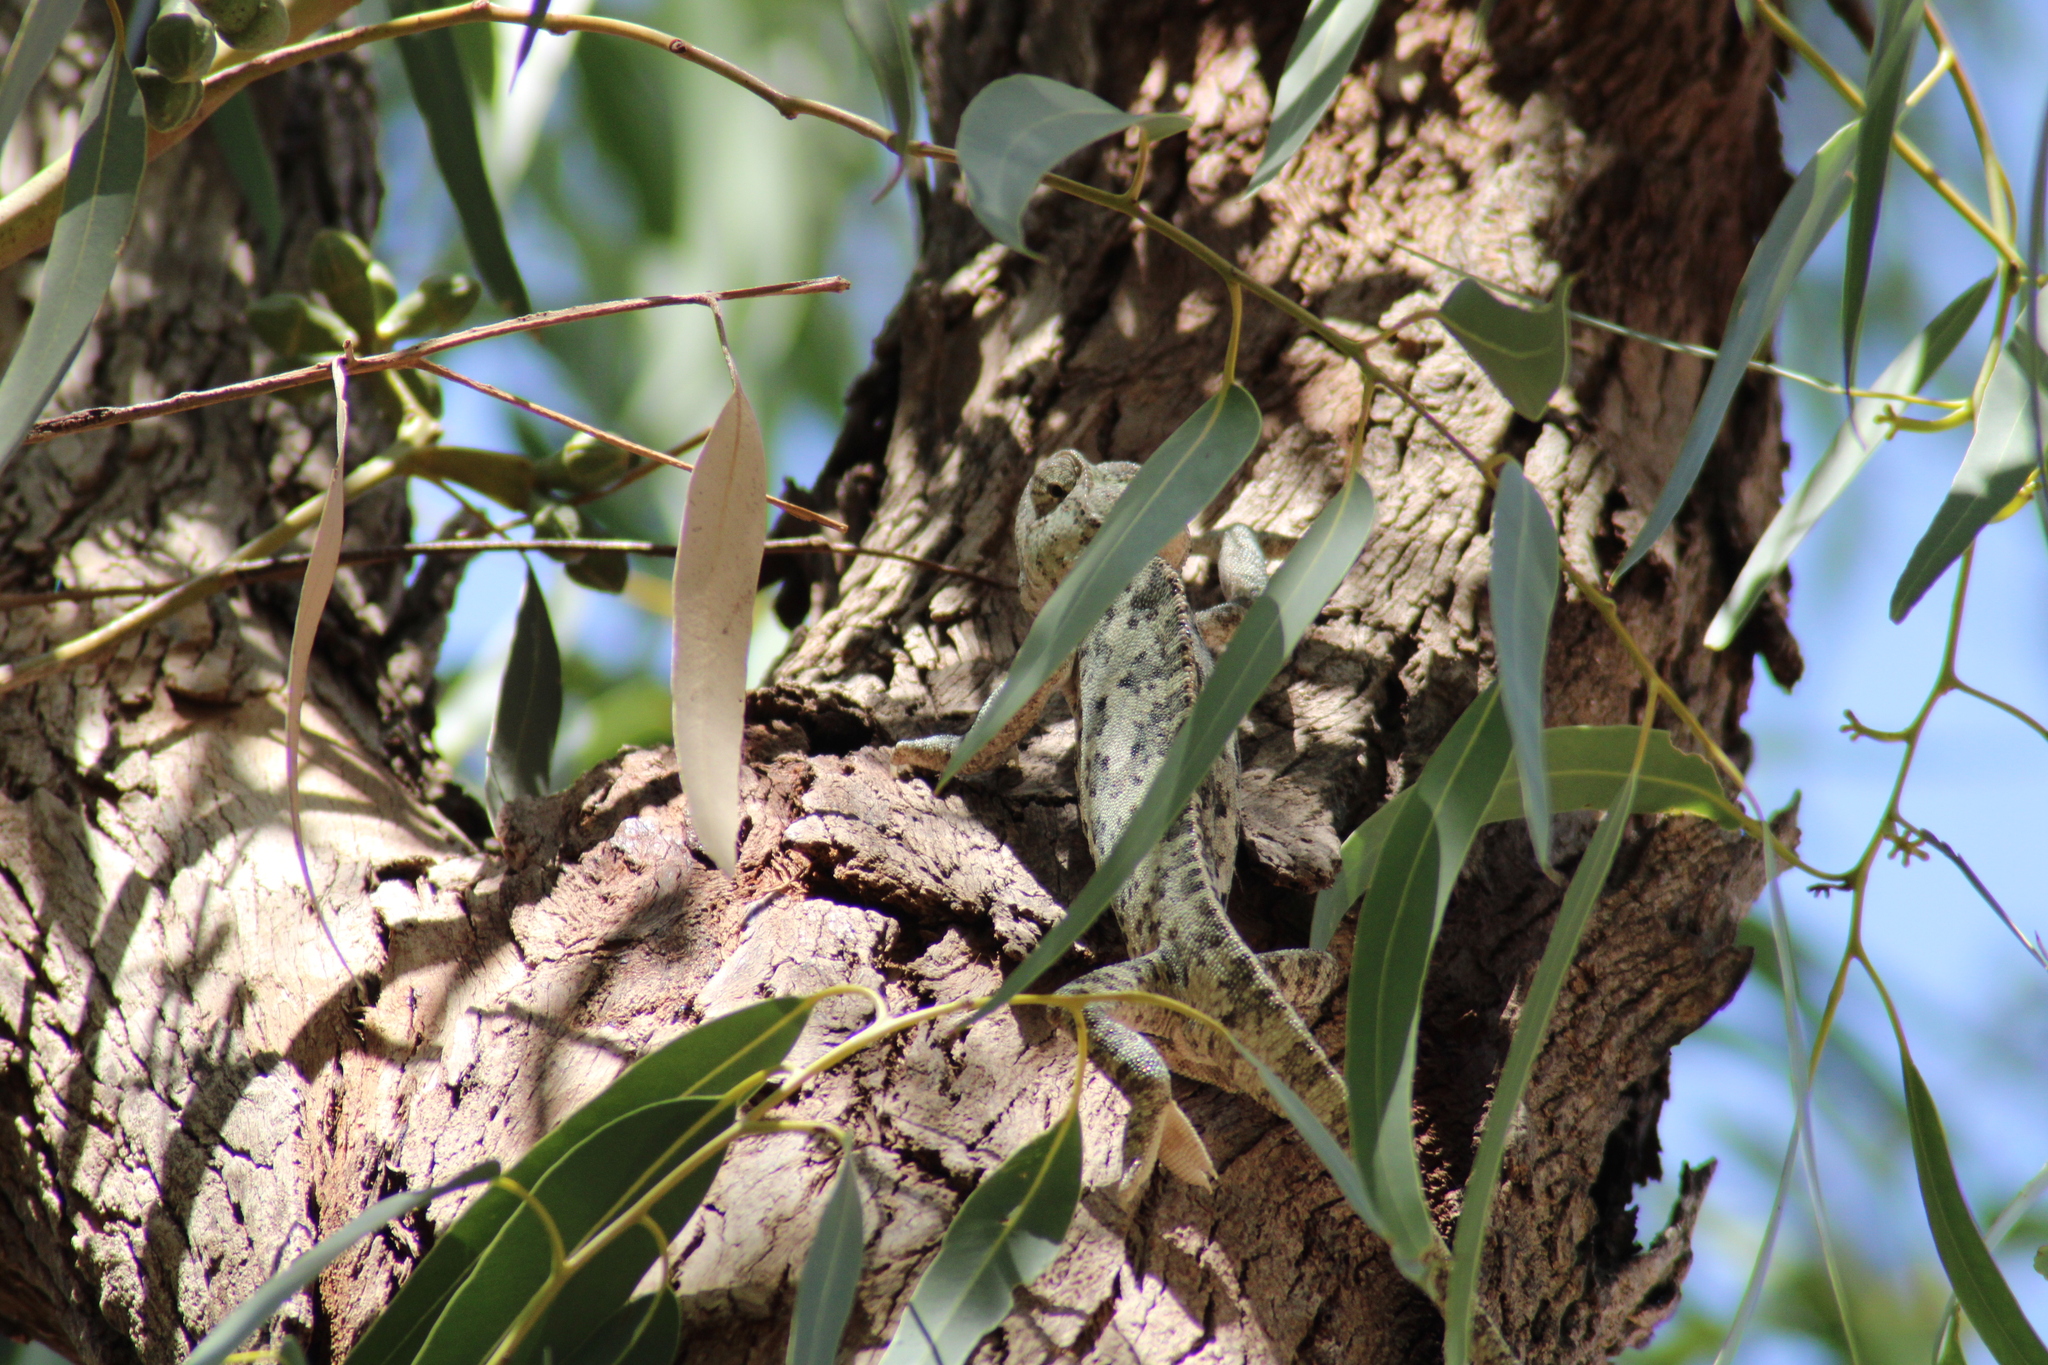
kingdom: Animalia
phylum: Chordata
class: Squamata
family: Chamaeleonidae
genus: Chamaeleo
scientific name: Chamaeleo chamaeleon
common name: Mediterranean chameleon
